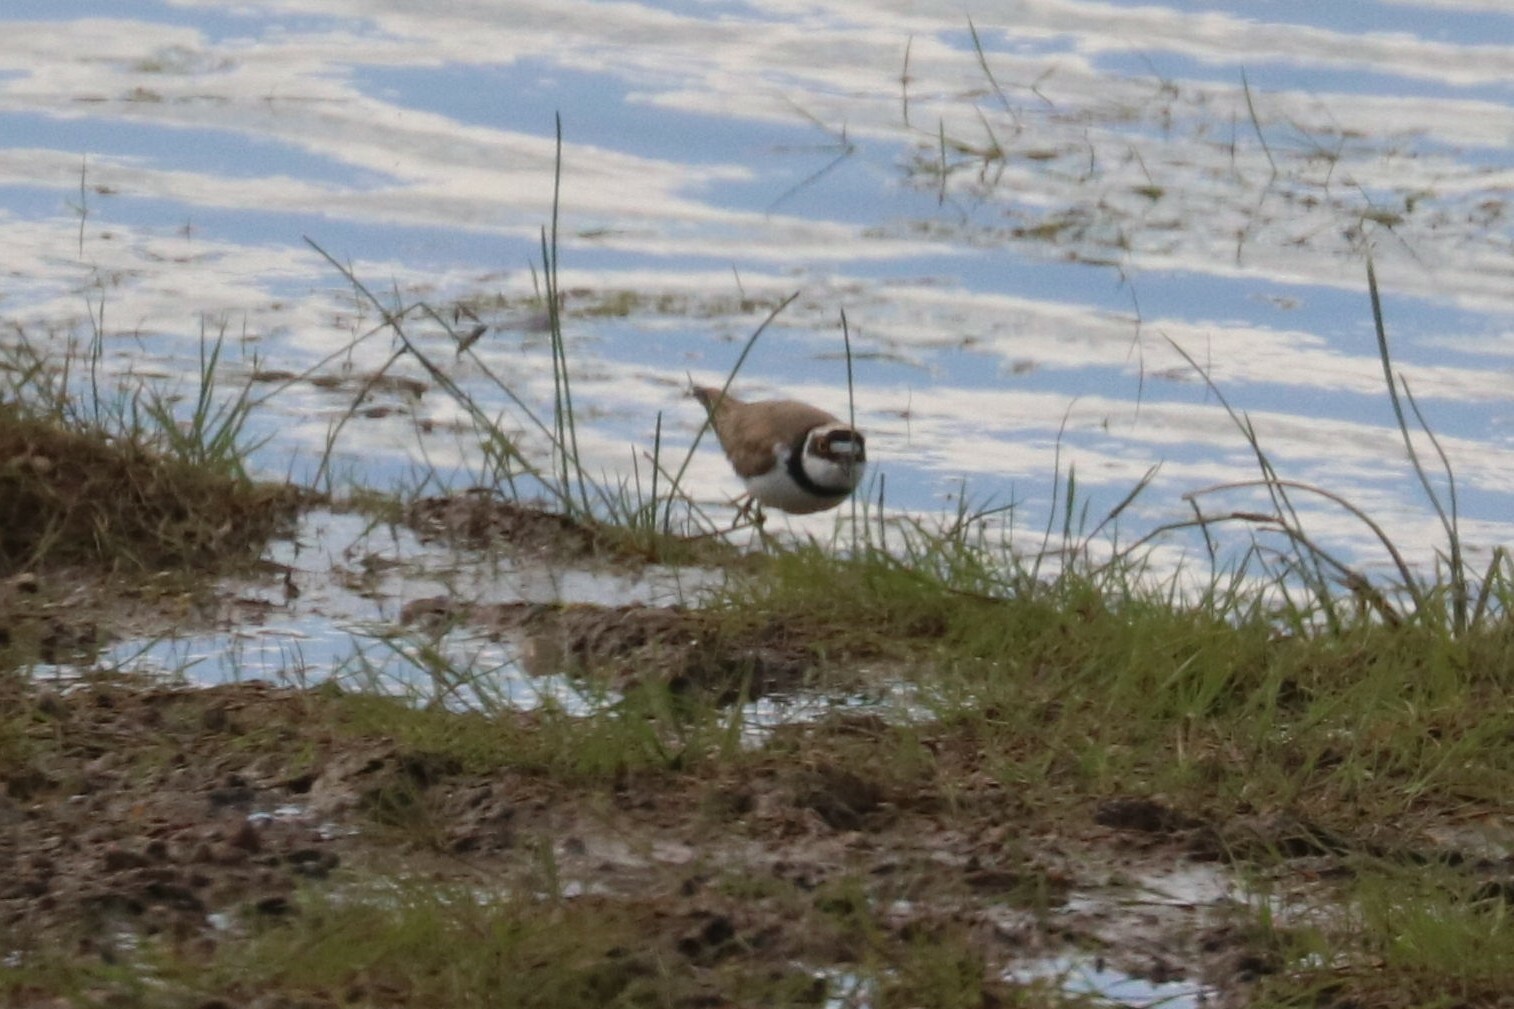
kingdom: Animalia
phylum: Chordata
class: Aves
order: Charadriiformes
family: Charadriidae
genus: Charadrius
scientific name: Charadrius dubius
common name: Little ringed plover
